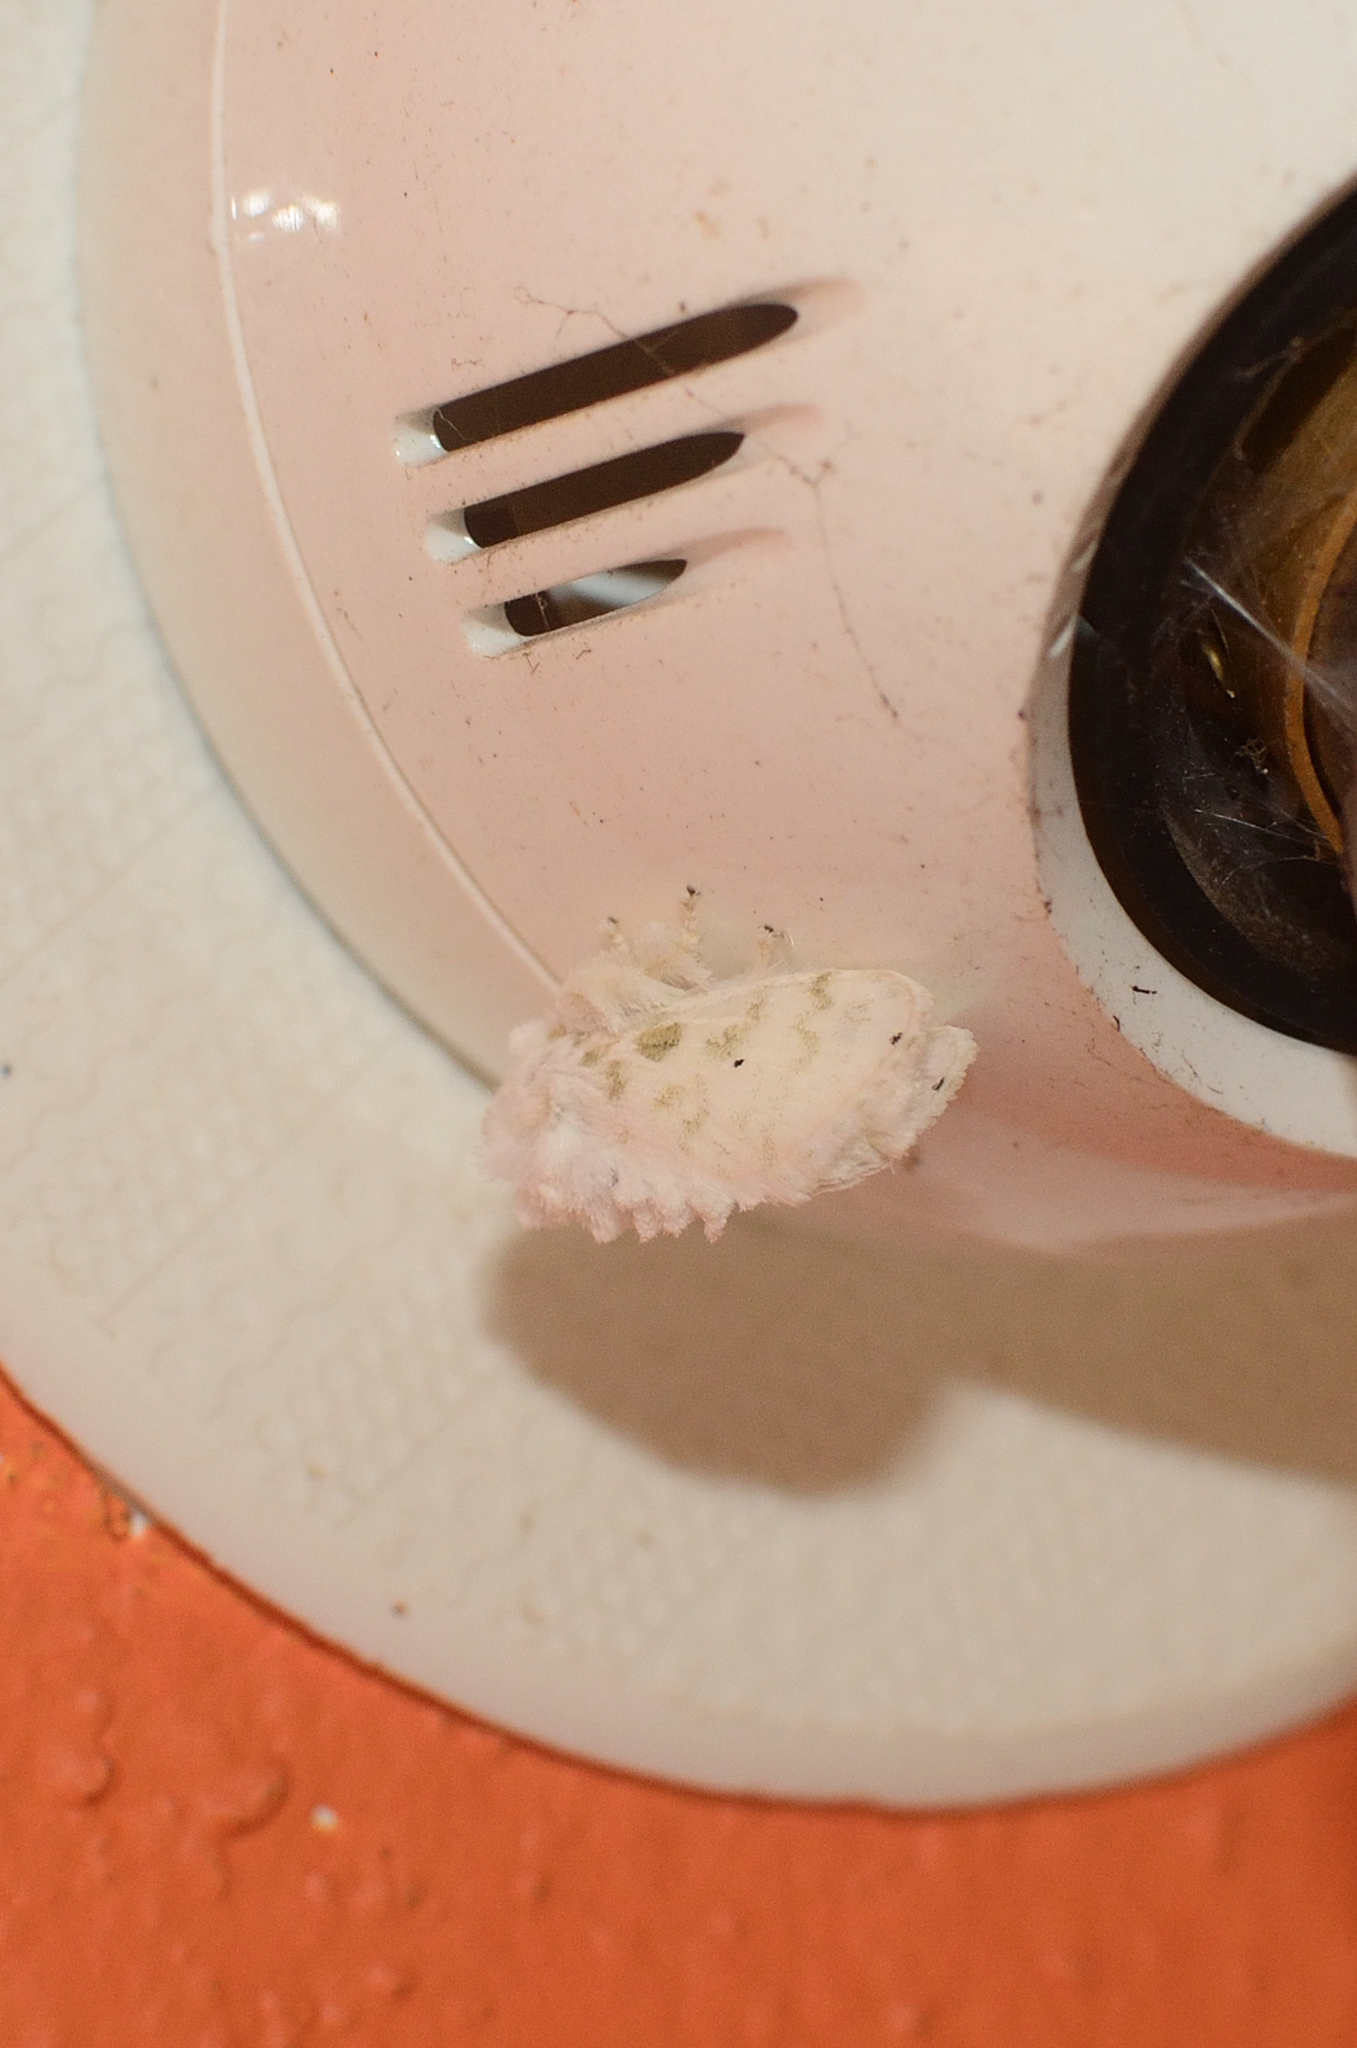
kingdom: Animalia
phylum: Arthropoda
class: Insecta
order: Lepidoptera
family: Limacodidae
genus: Altha
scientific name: Altha subnotata
